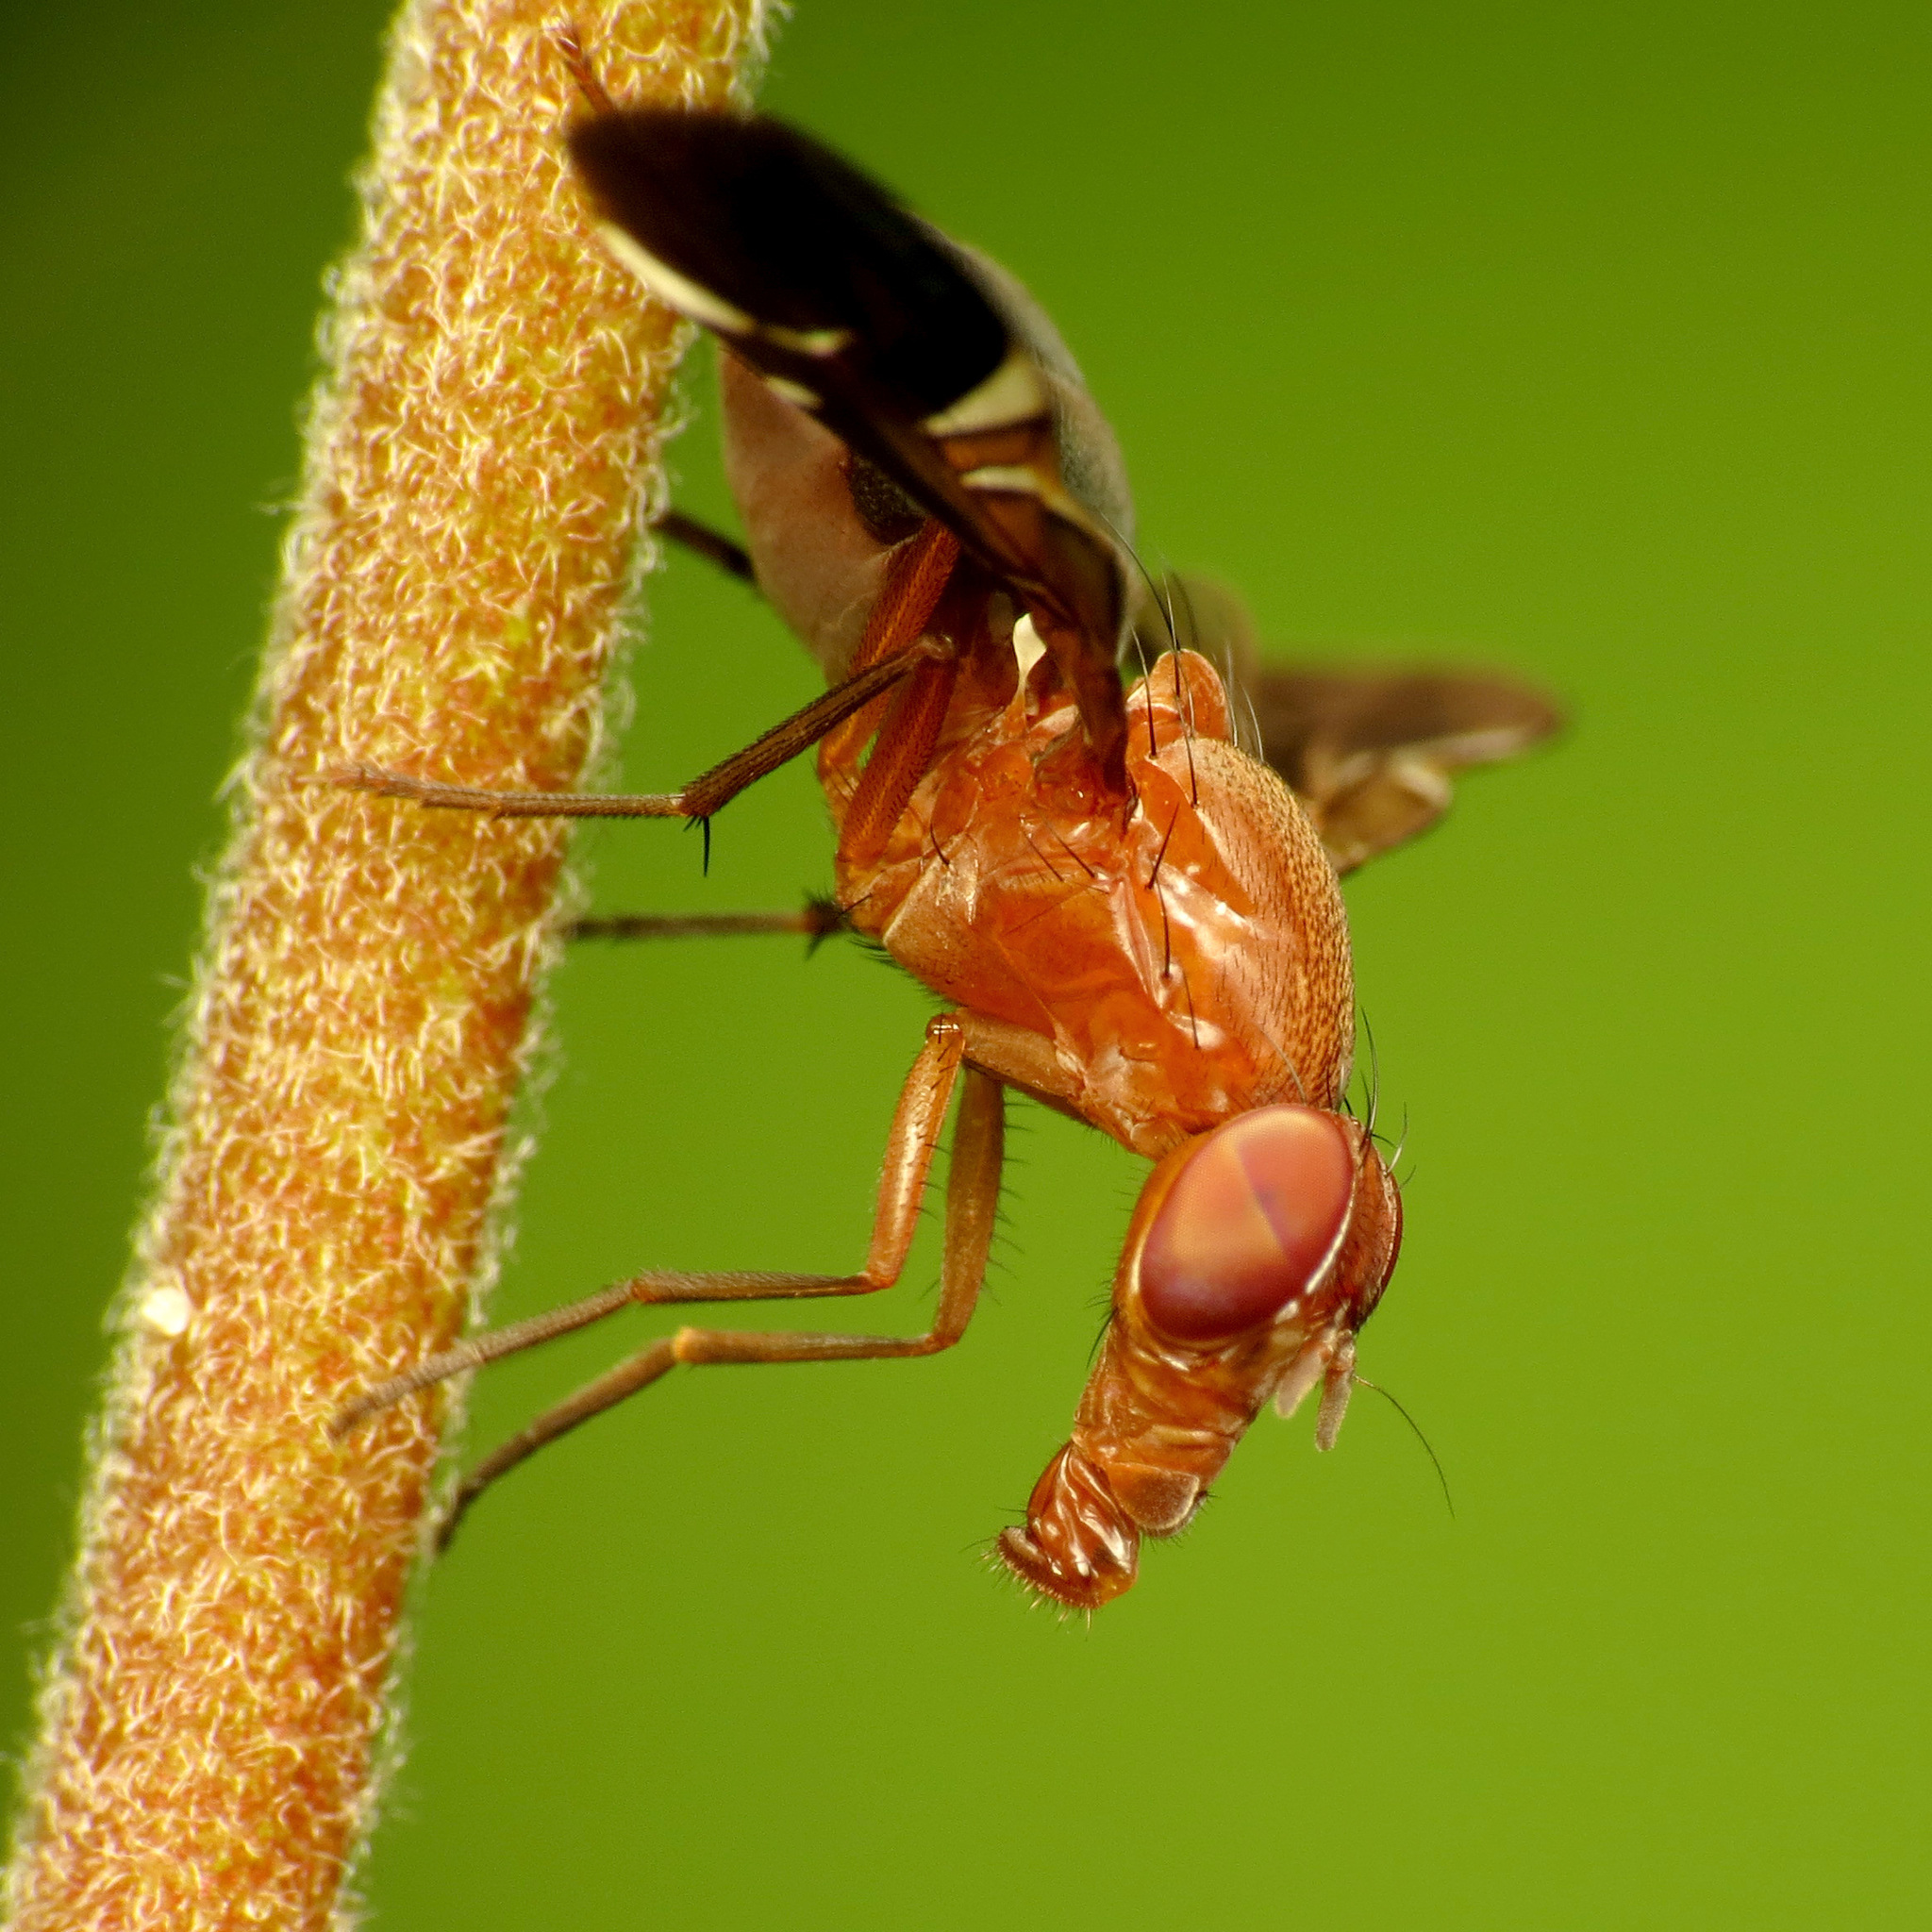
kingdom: Animalia
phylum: Arthropoda
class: Insecta
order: Diptera
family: Ulidiidae
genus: Delphinia
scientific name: Delphinia picta
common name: Common picture-winged fly
